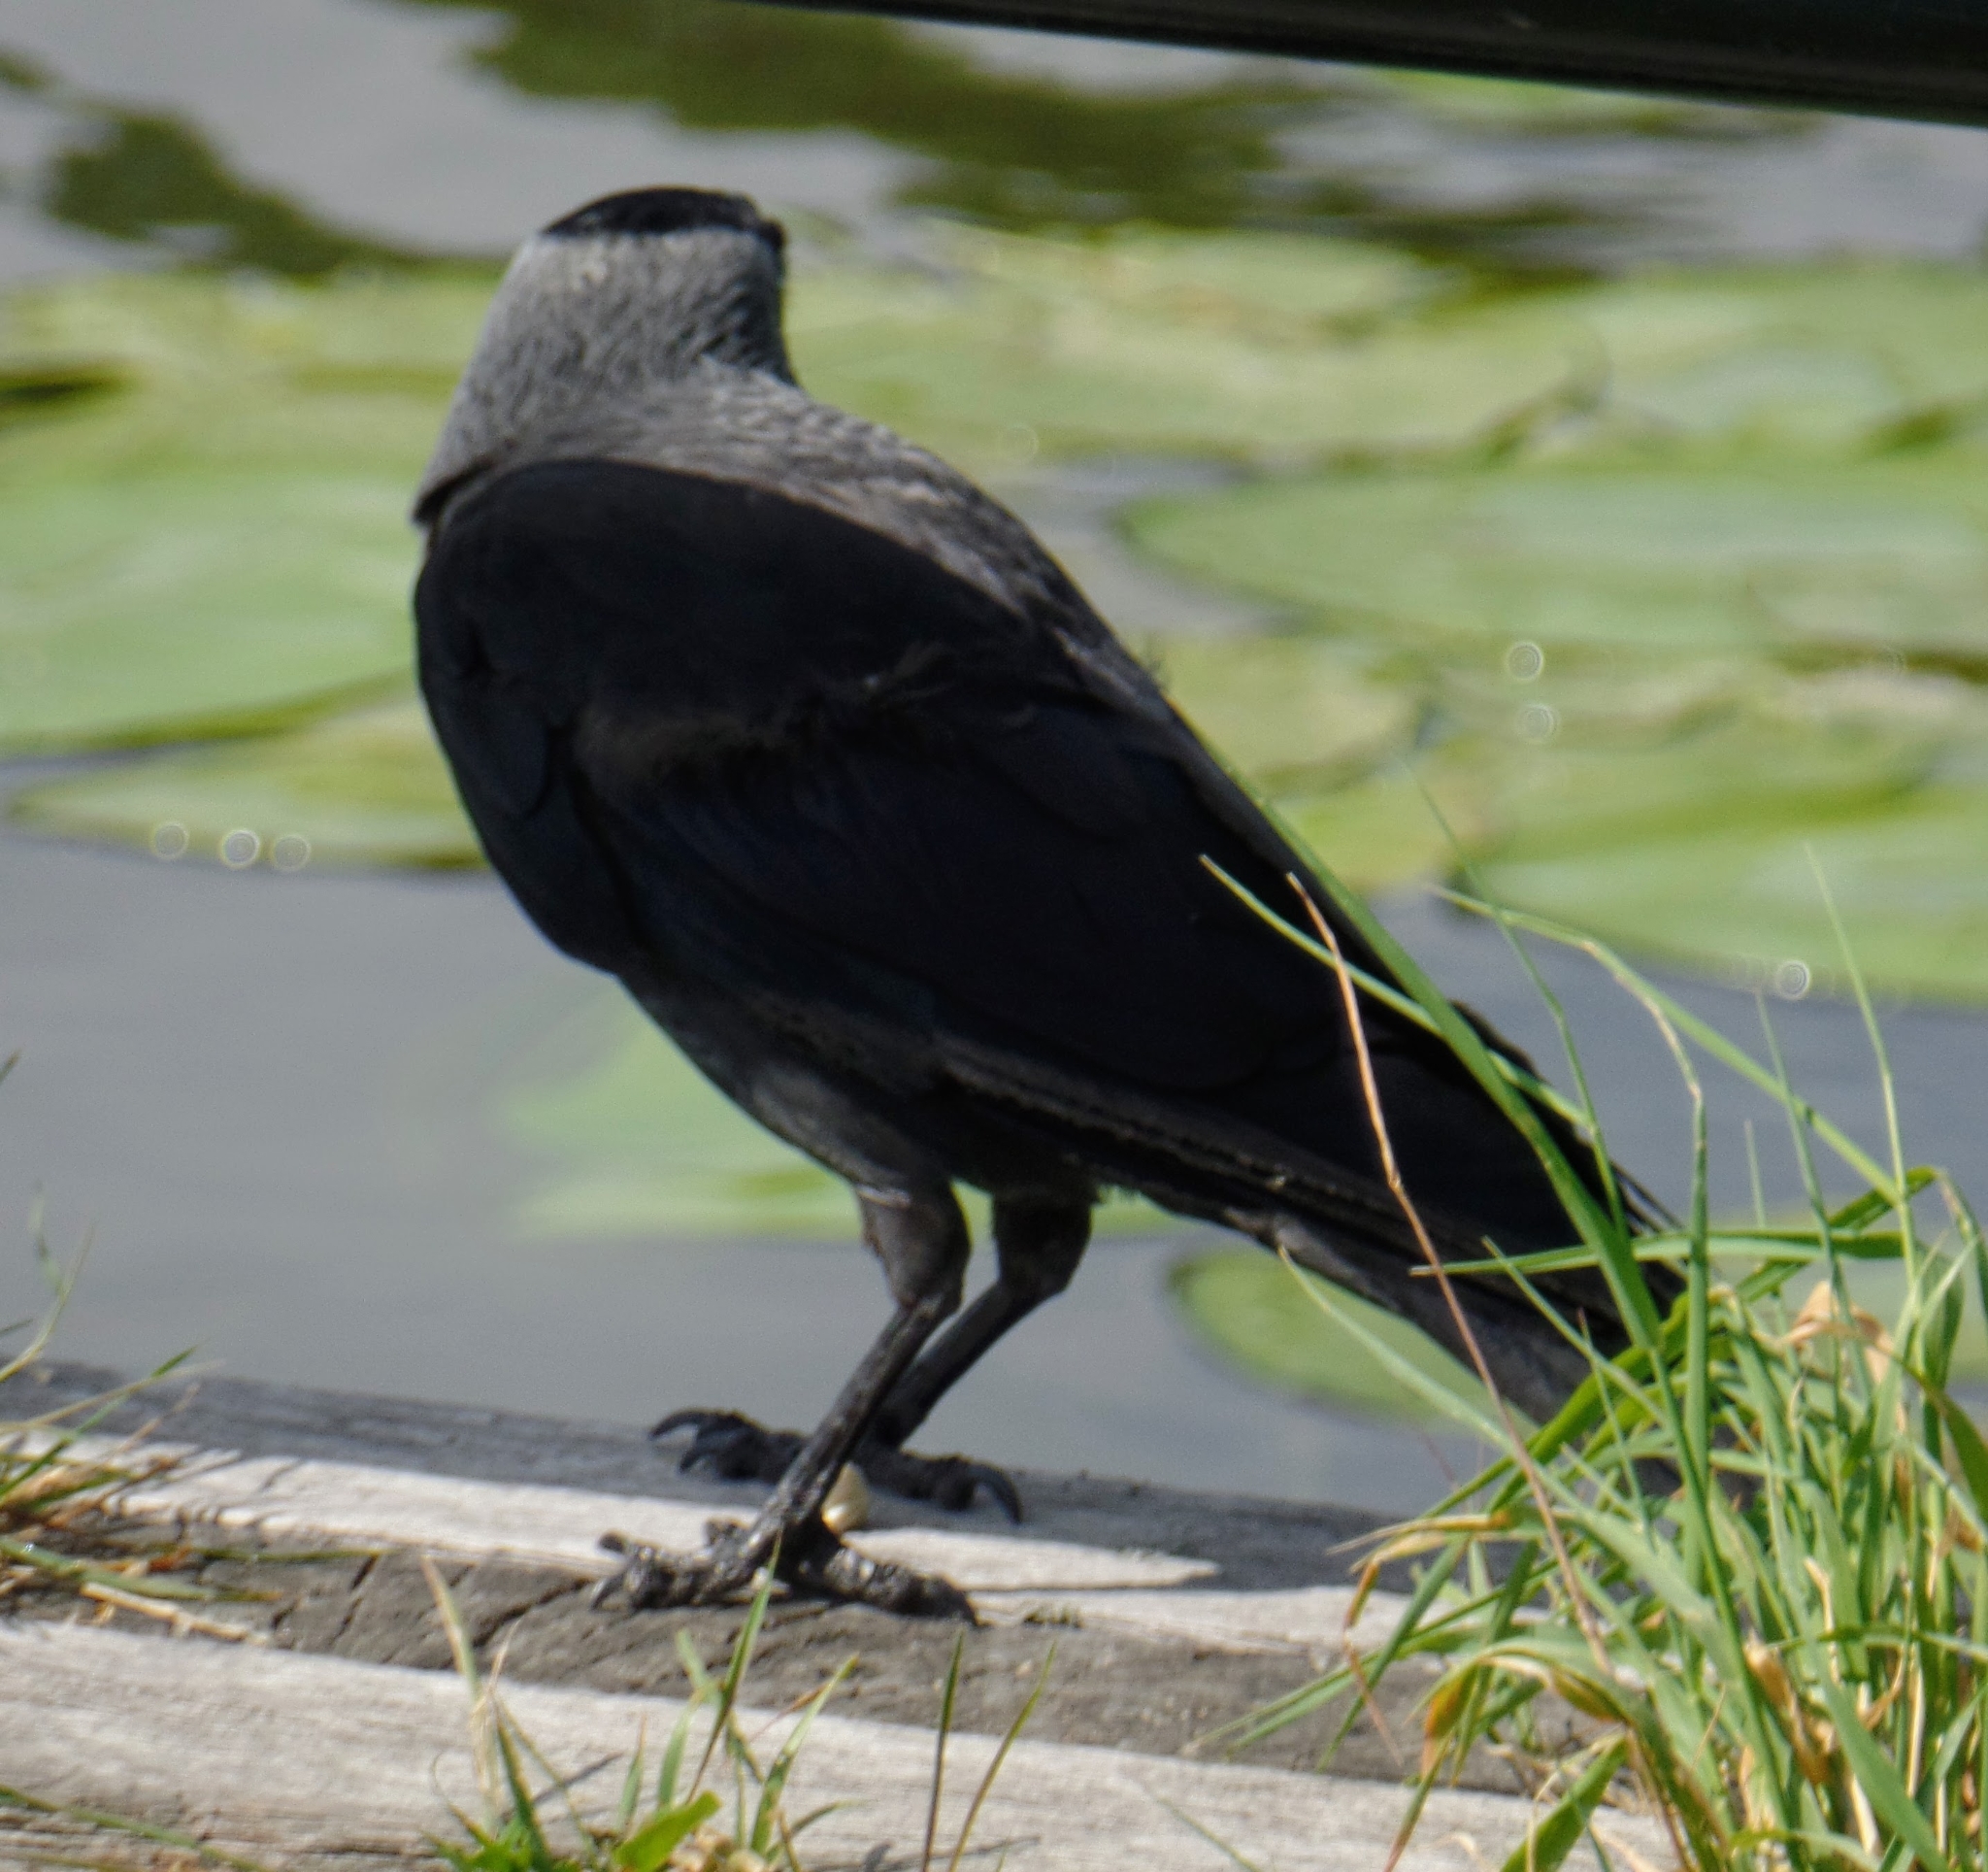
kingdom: Animalia
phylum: Chordata
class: Aves
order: Passeriformes
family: Corvidae
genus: Coloeus
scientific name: Coloeus monedula
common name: Western jackdaw
